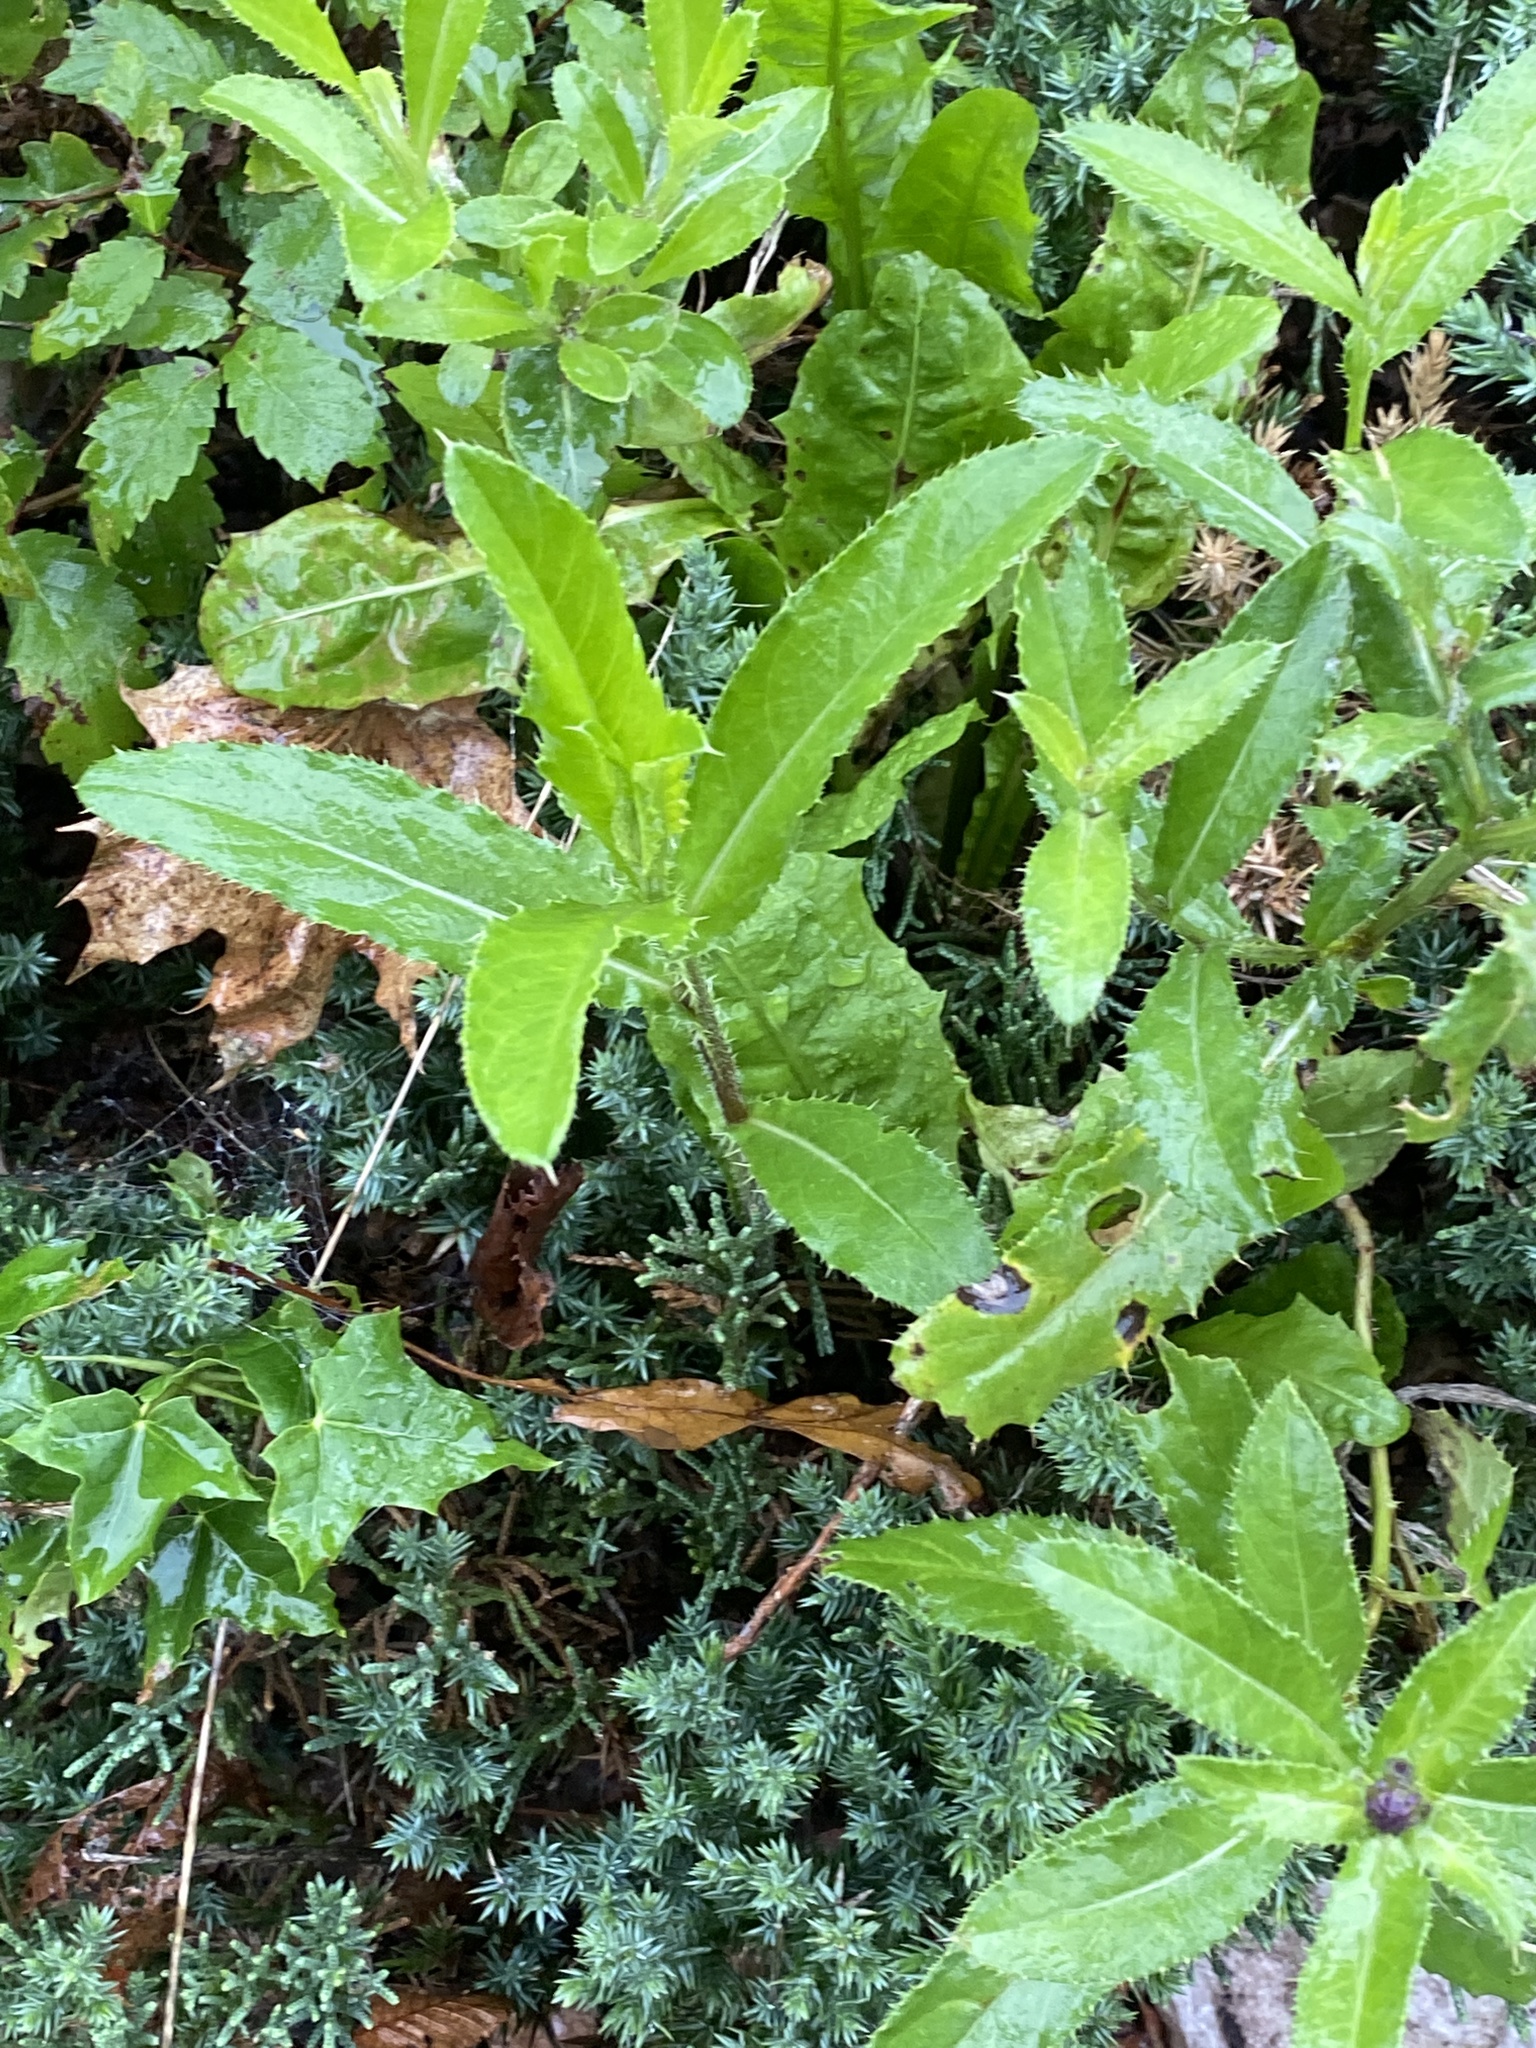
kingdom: Plantae
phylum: Tracheophyta
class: Magnoliopsida
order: Asterales
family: Asteraceae
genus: Cirsium
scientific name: Cirsium arvense
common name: Creeping thistle
